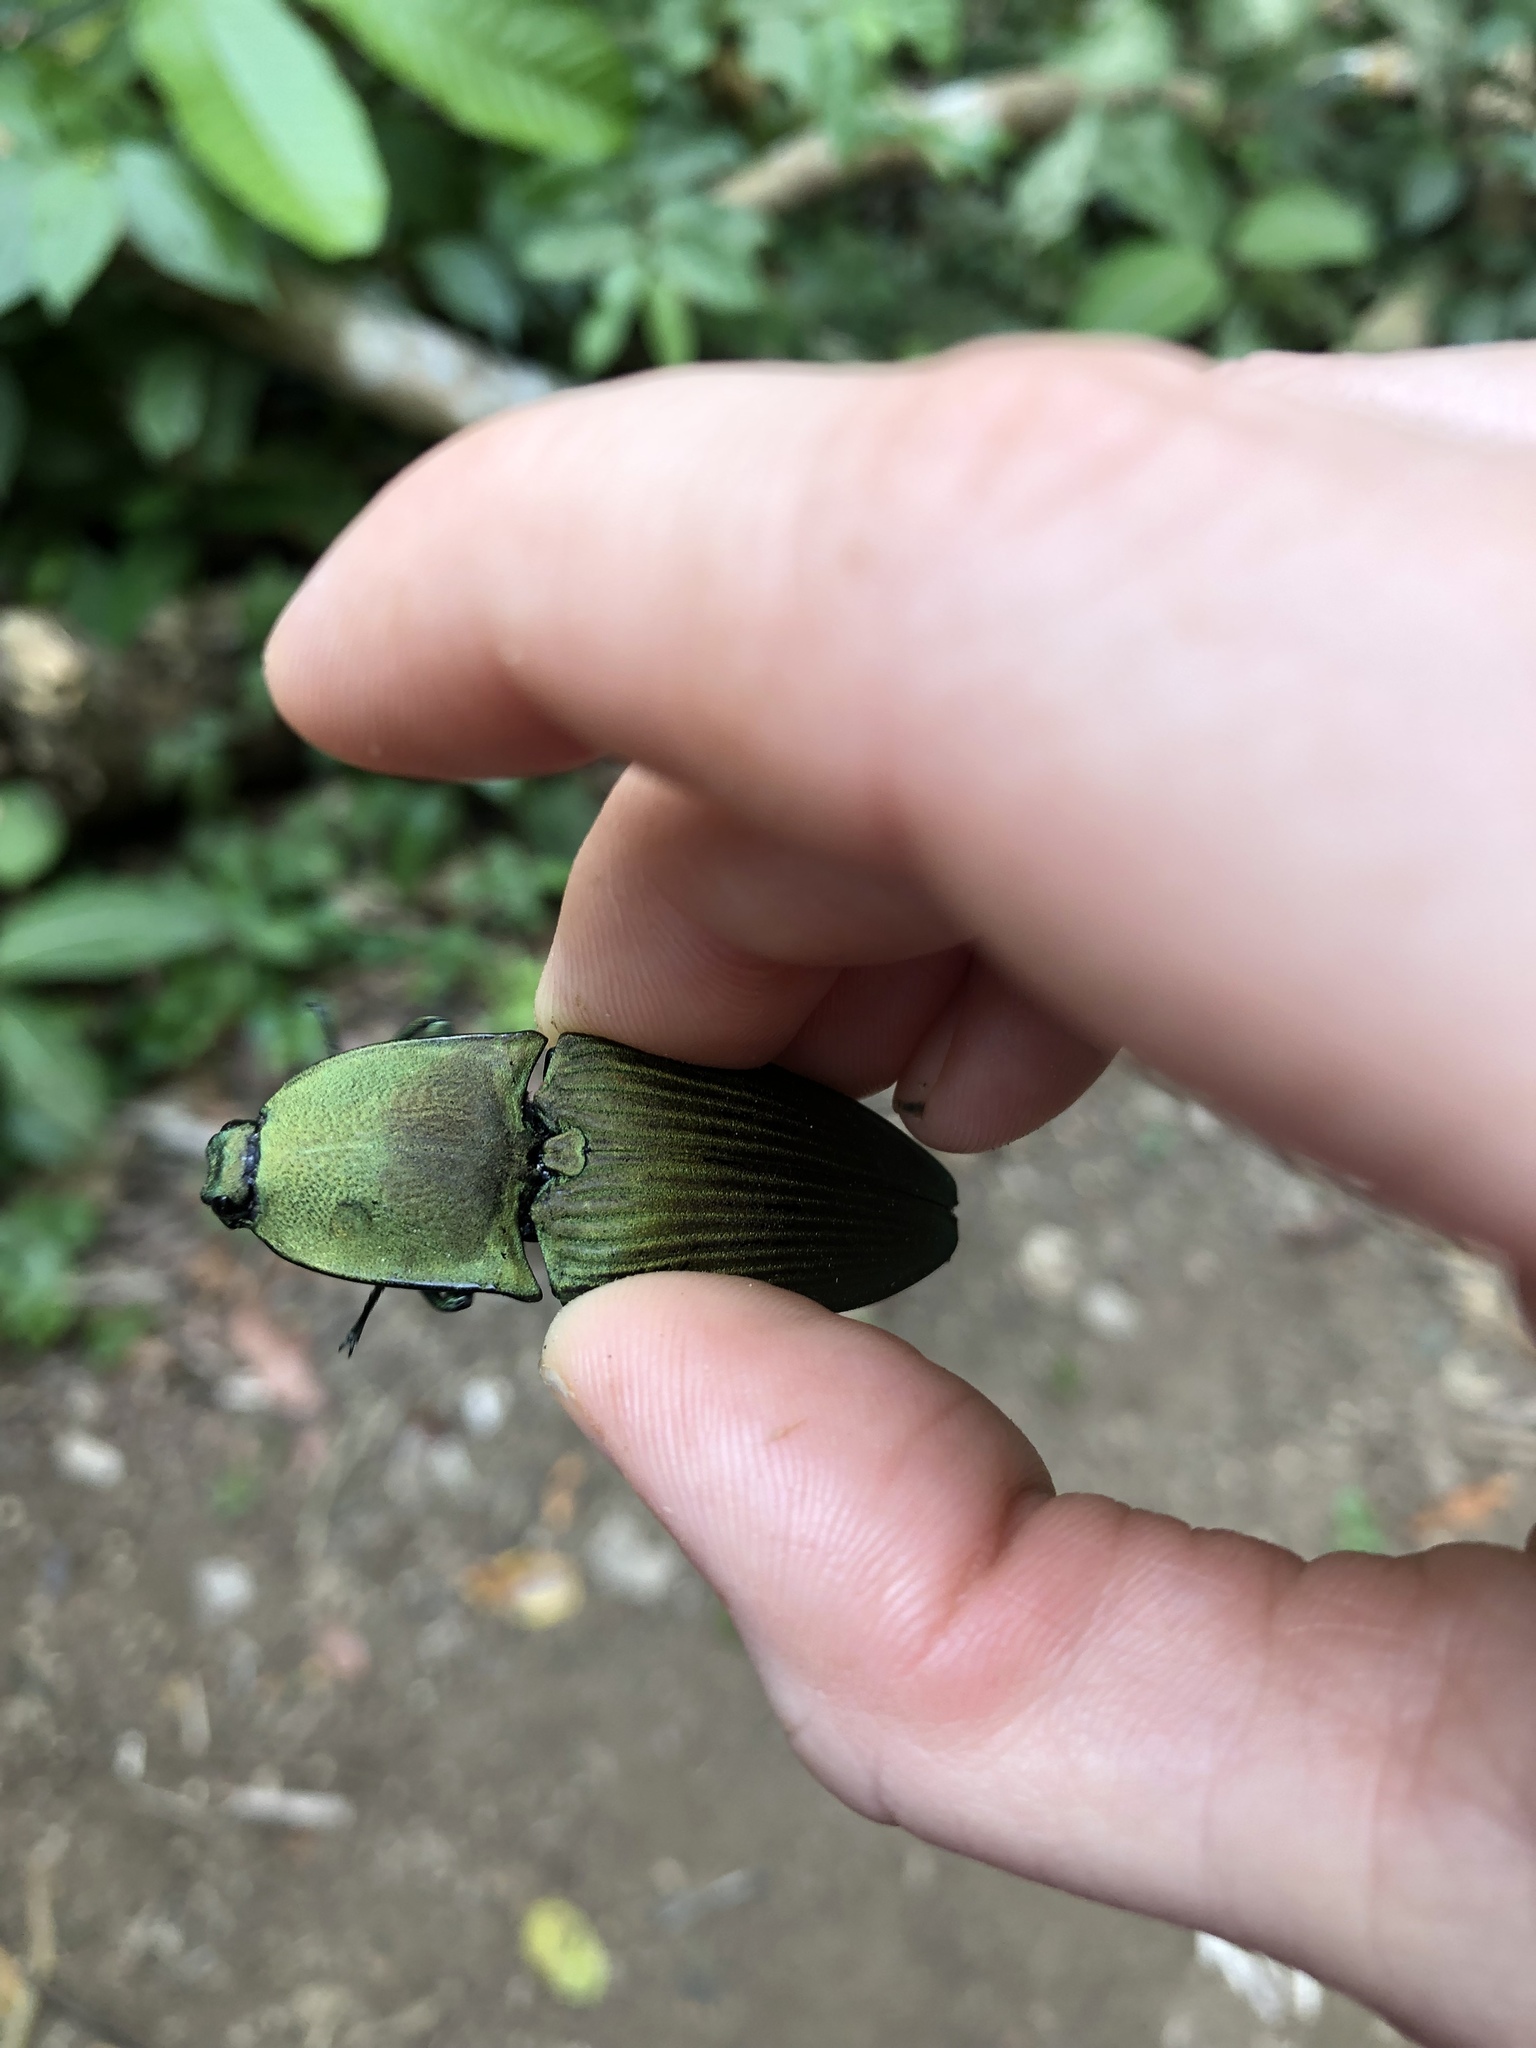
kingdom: Animalia
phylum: Arthropoda
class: Insecta
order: Coleoptera
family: Elateridae
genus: Chalcolepidius
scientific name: Chalcolepidius lacordairei
